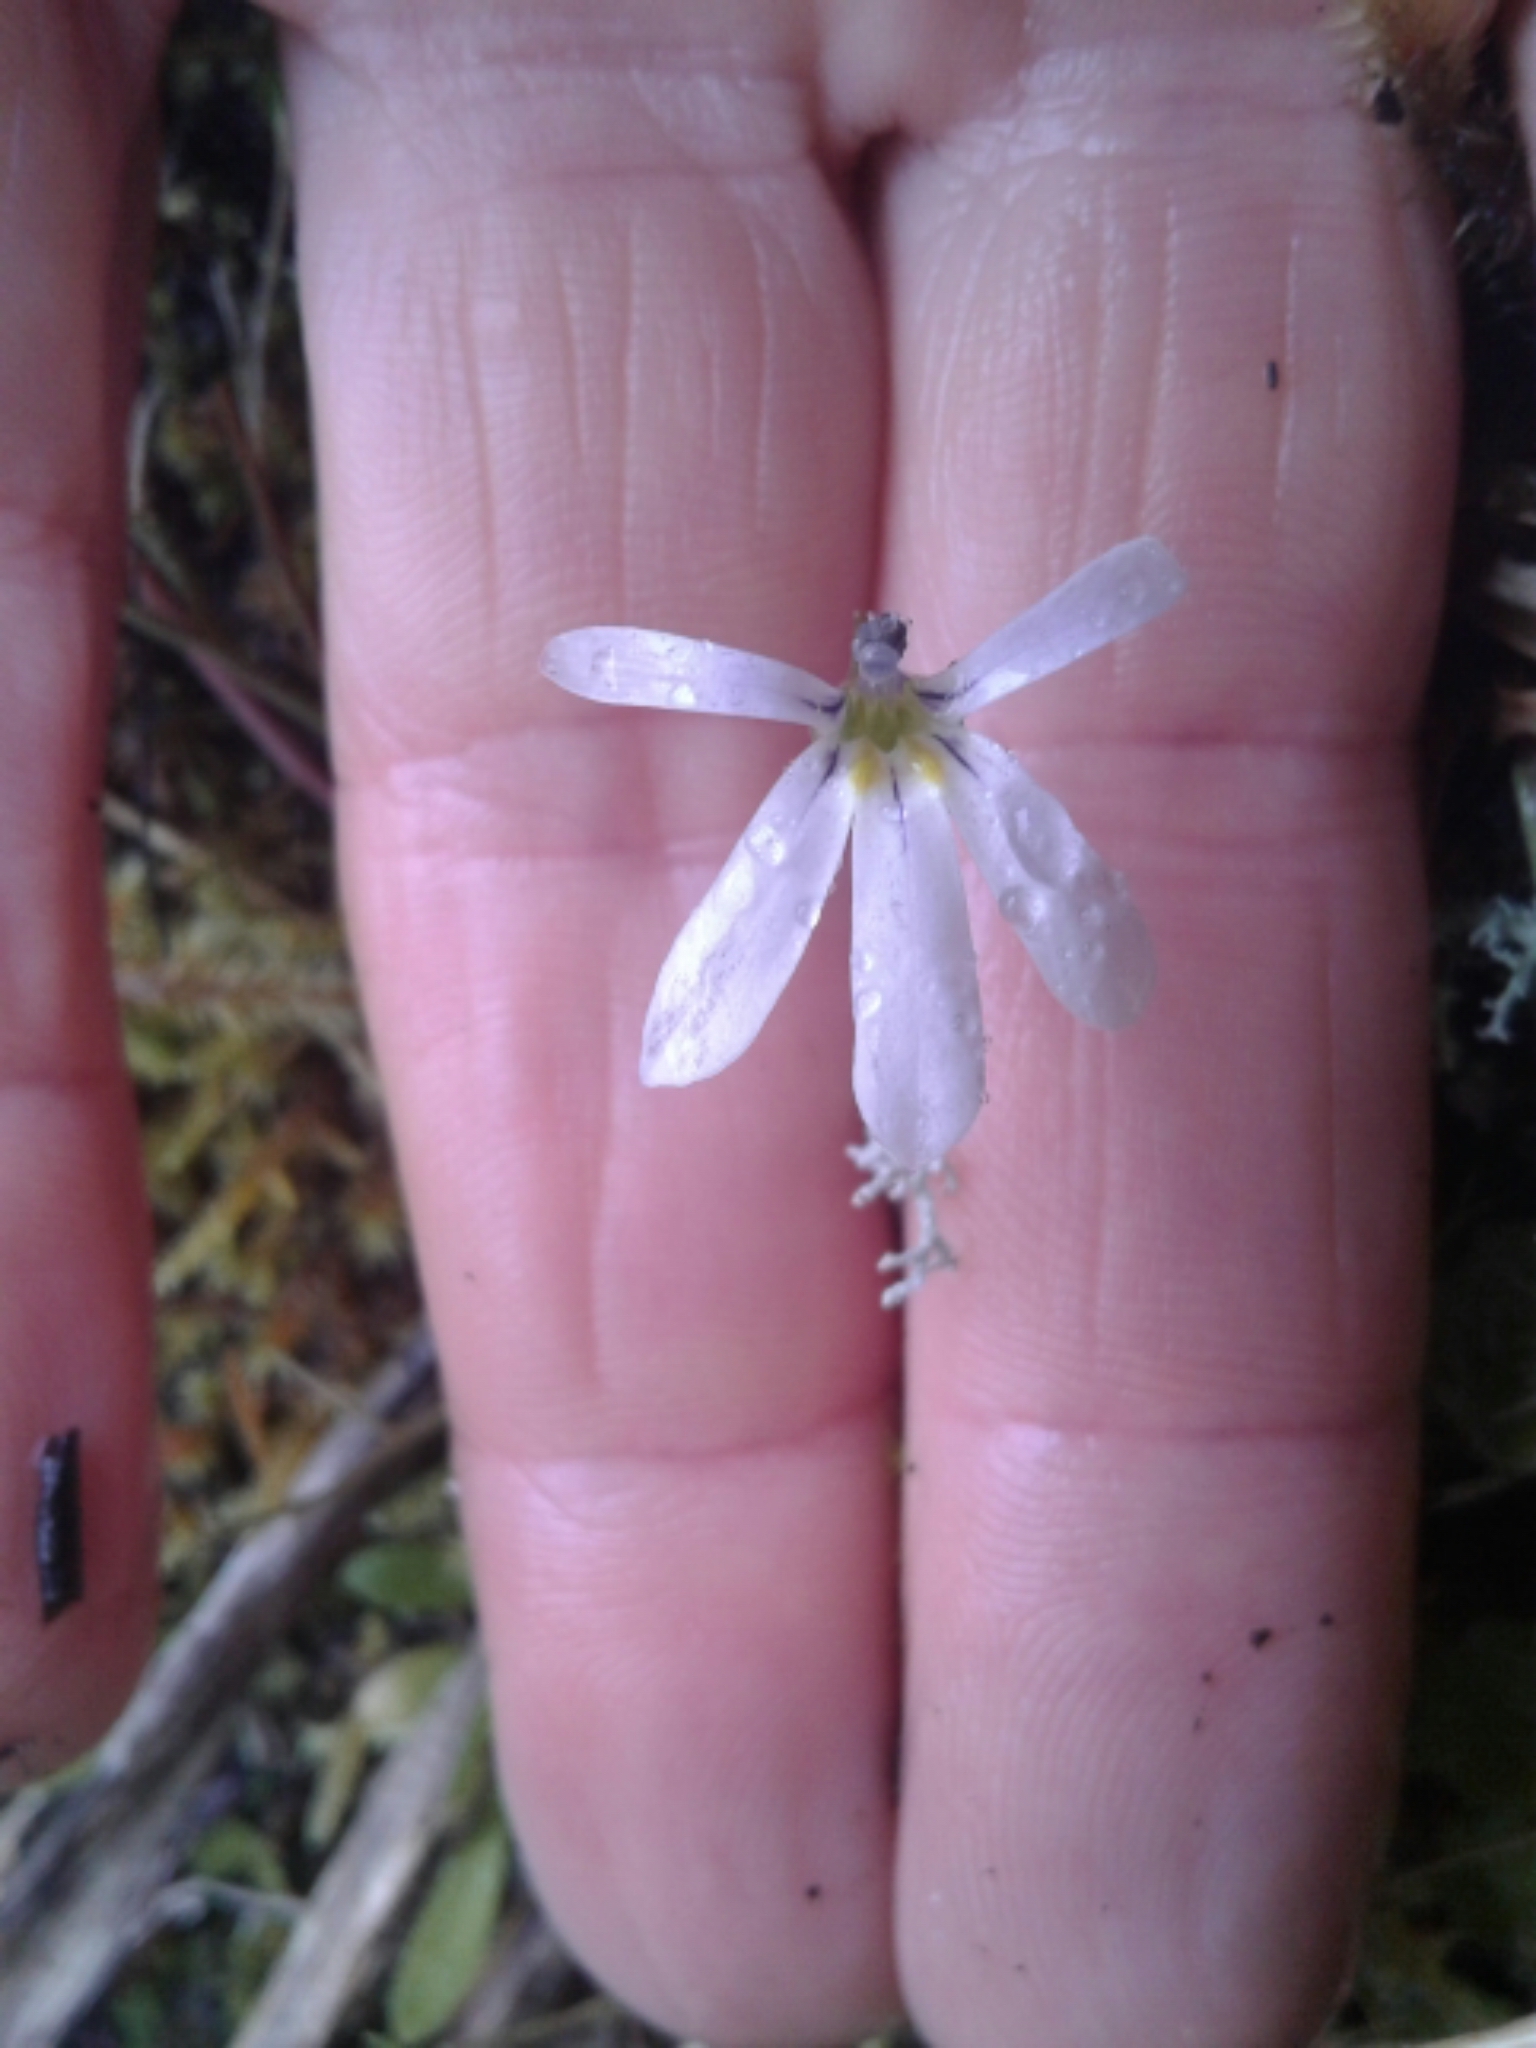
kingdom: Plantae
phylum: Tracheophyta
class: Magnoliopsida
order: Asterales
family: Campanulaceae
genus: Lobelia
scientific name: Lobelia angulata
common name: Lawn lobelia
